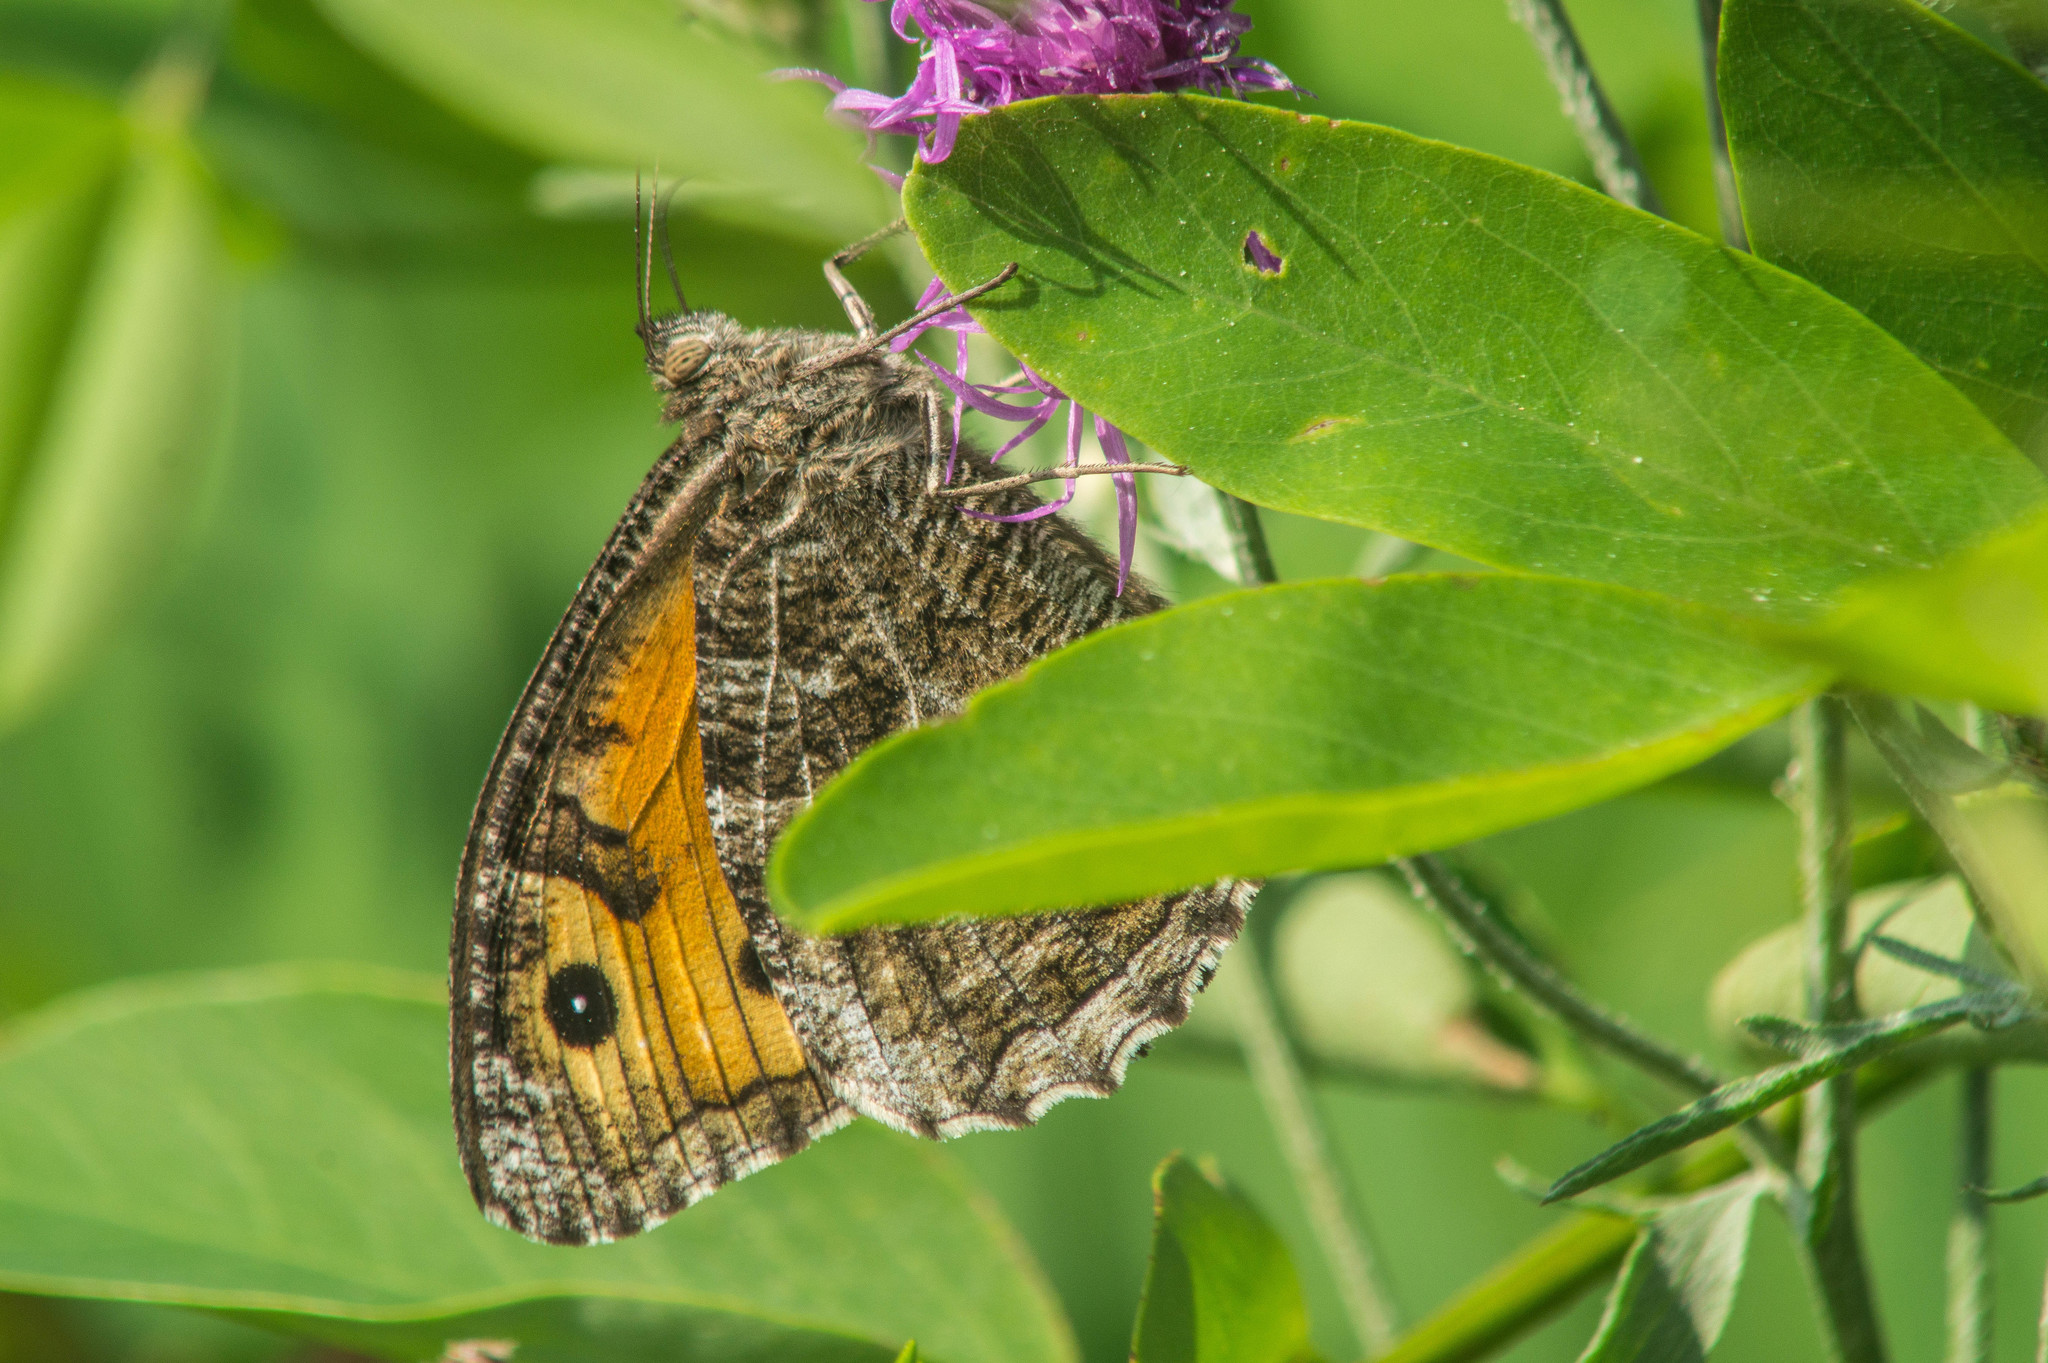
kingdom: Animalia
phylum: Arthropoda
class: Insecta
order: Lepidoptera
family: Nymphalidae
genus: Hipparchia
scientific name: Hipparchia semele
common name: Grayling
